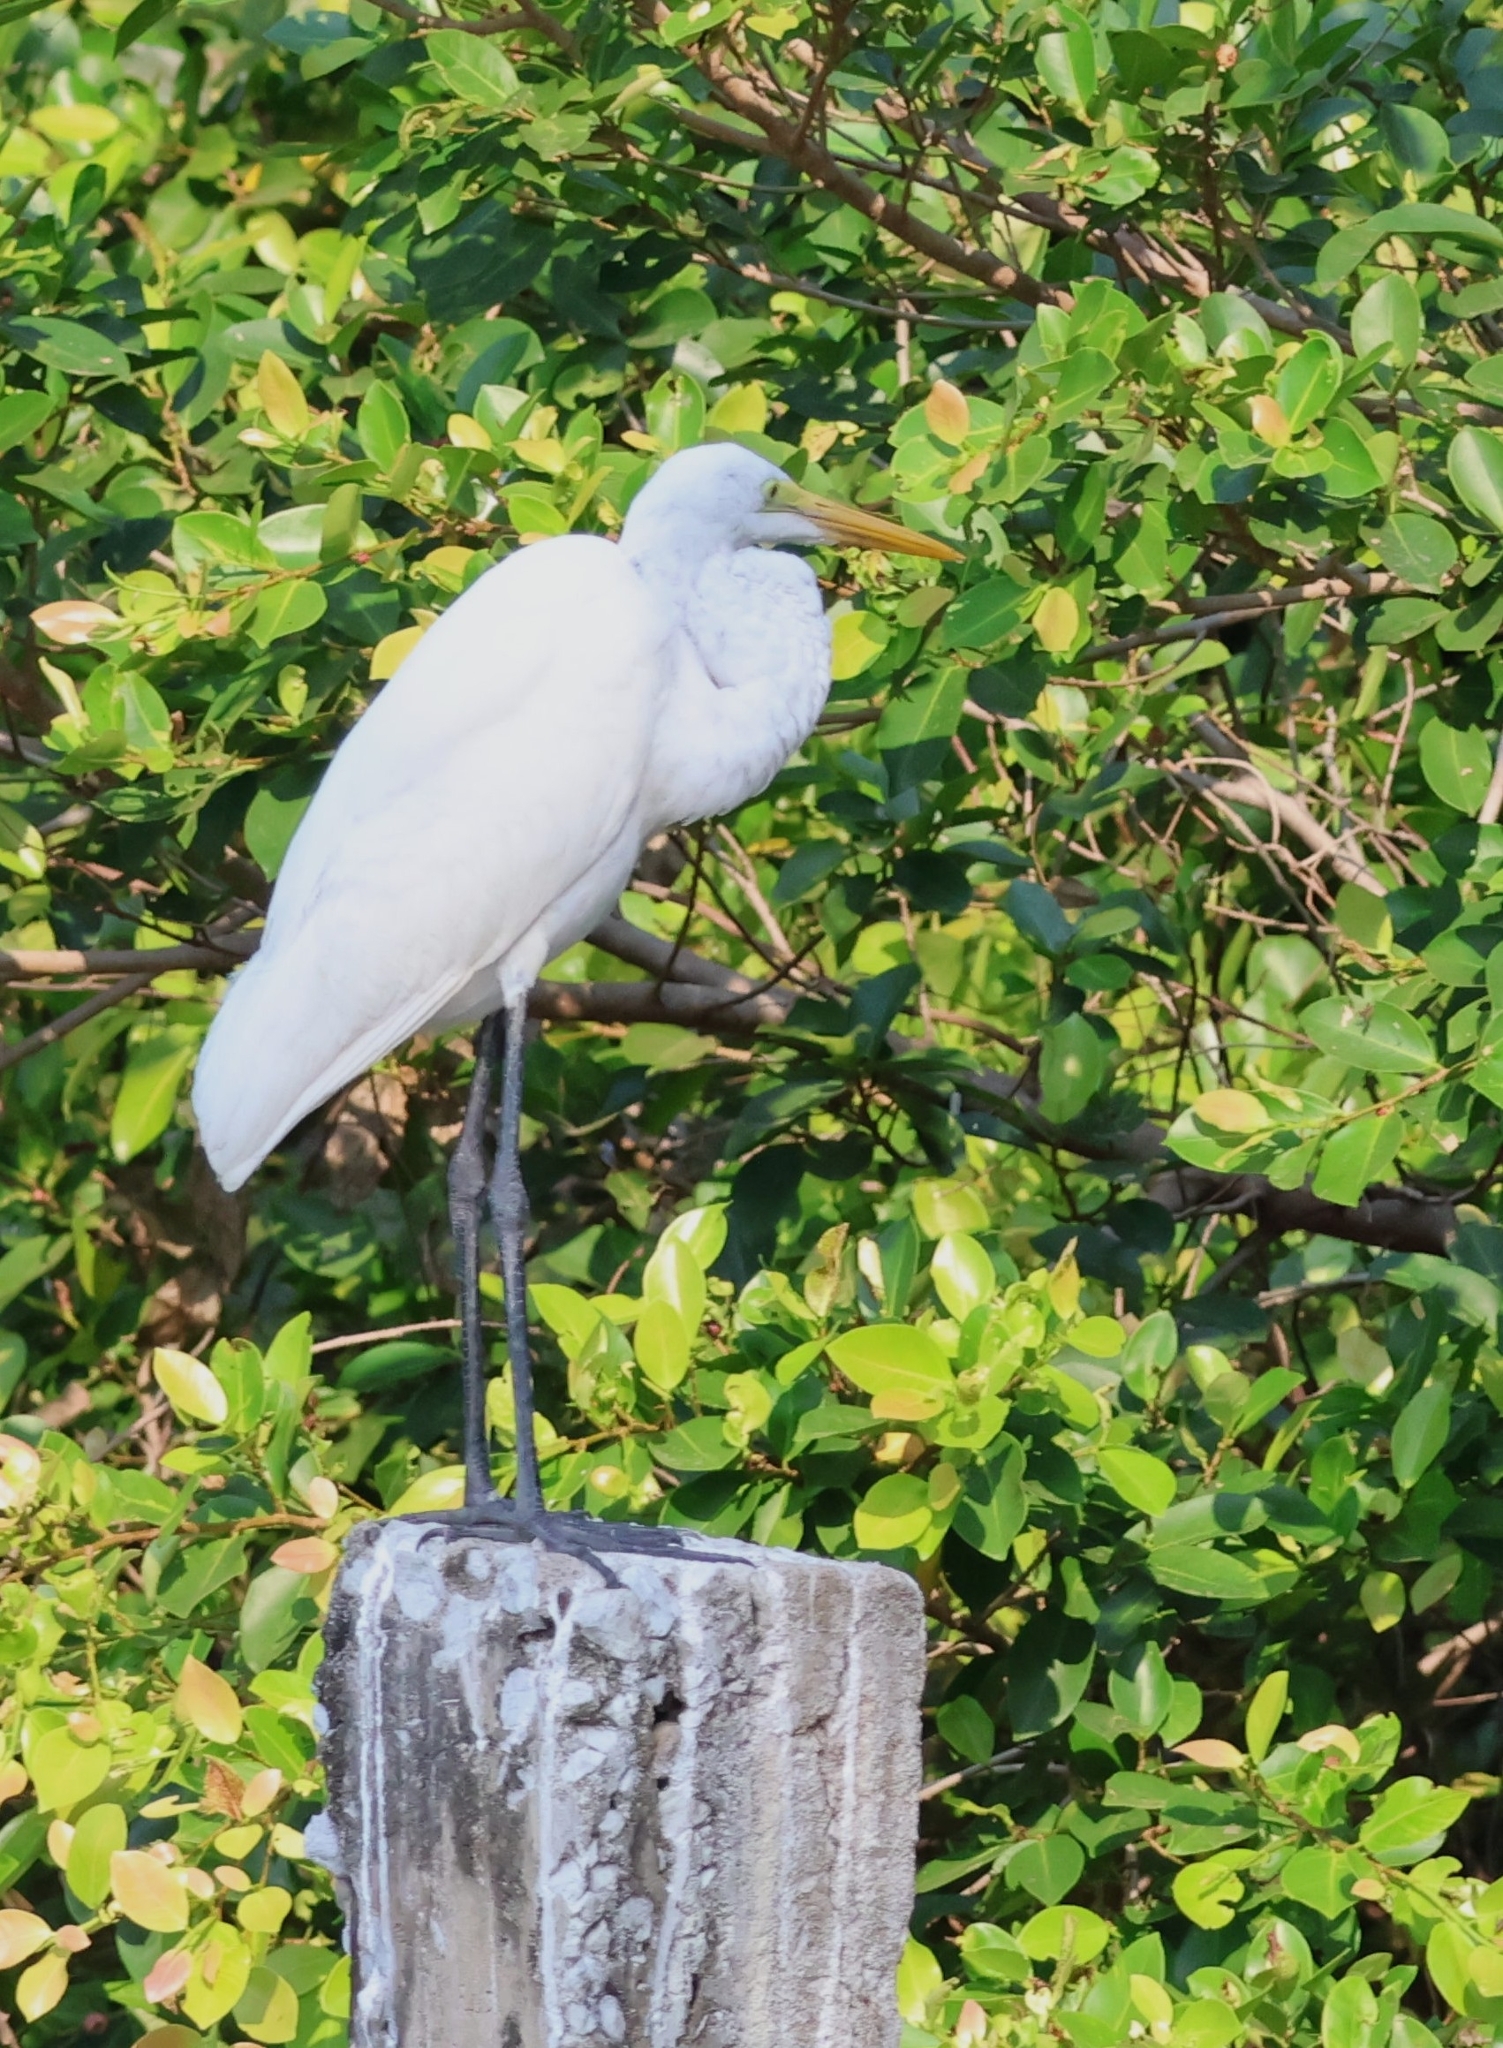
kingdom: Animalia
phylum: Chordata
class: Aves
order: Pelecaniformes
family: Ardeidae
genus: Ardea
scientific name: Ardea alba
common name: Great egret
